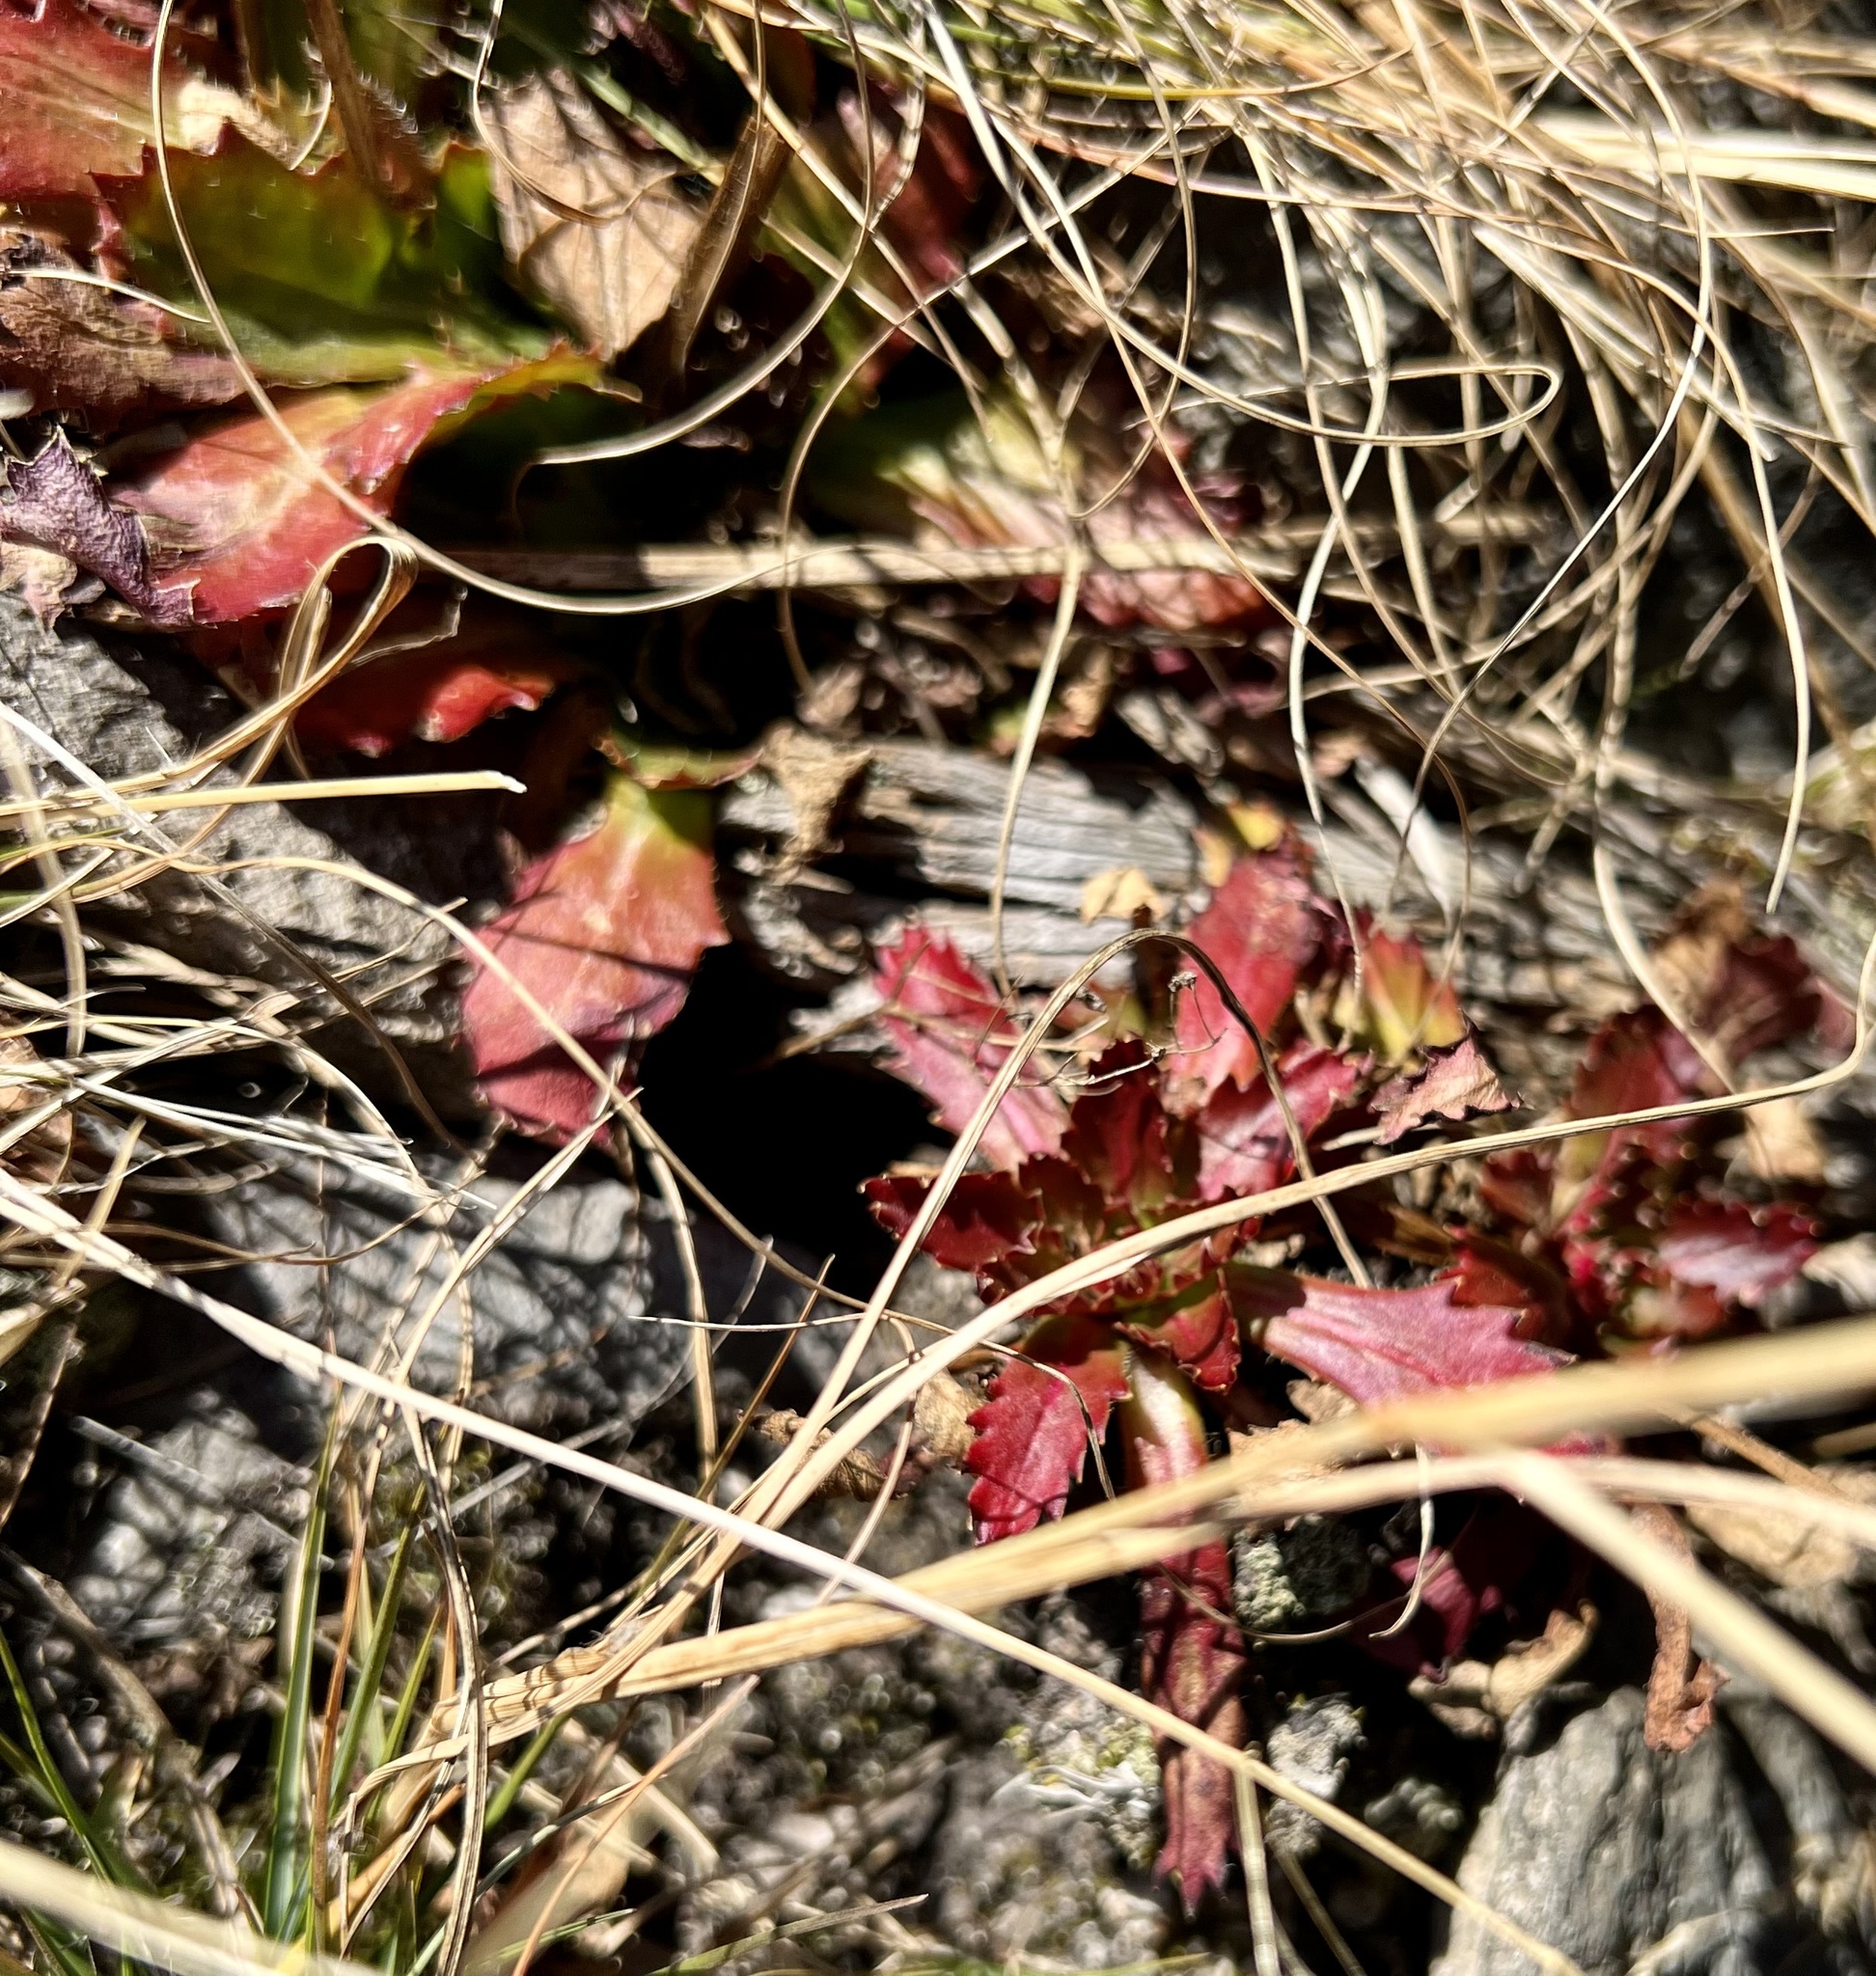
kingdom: Plantae
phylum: Tracheophyta
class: Magnoliopsida
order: Saxifragales
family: Saxifragaceae
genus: Micranthes
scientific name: Micranthes petiolaris
